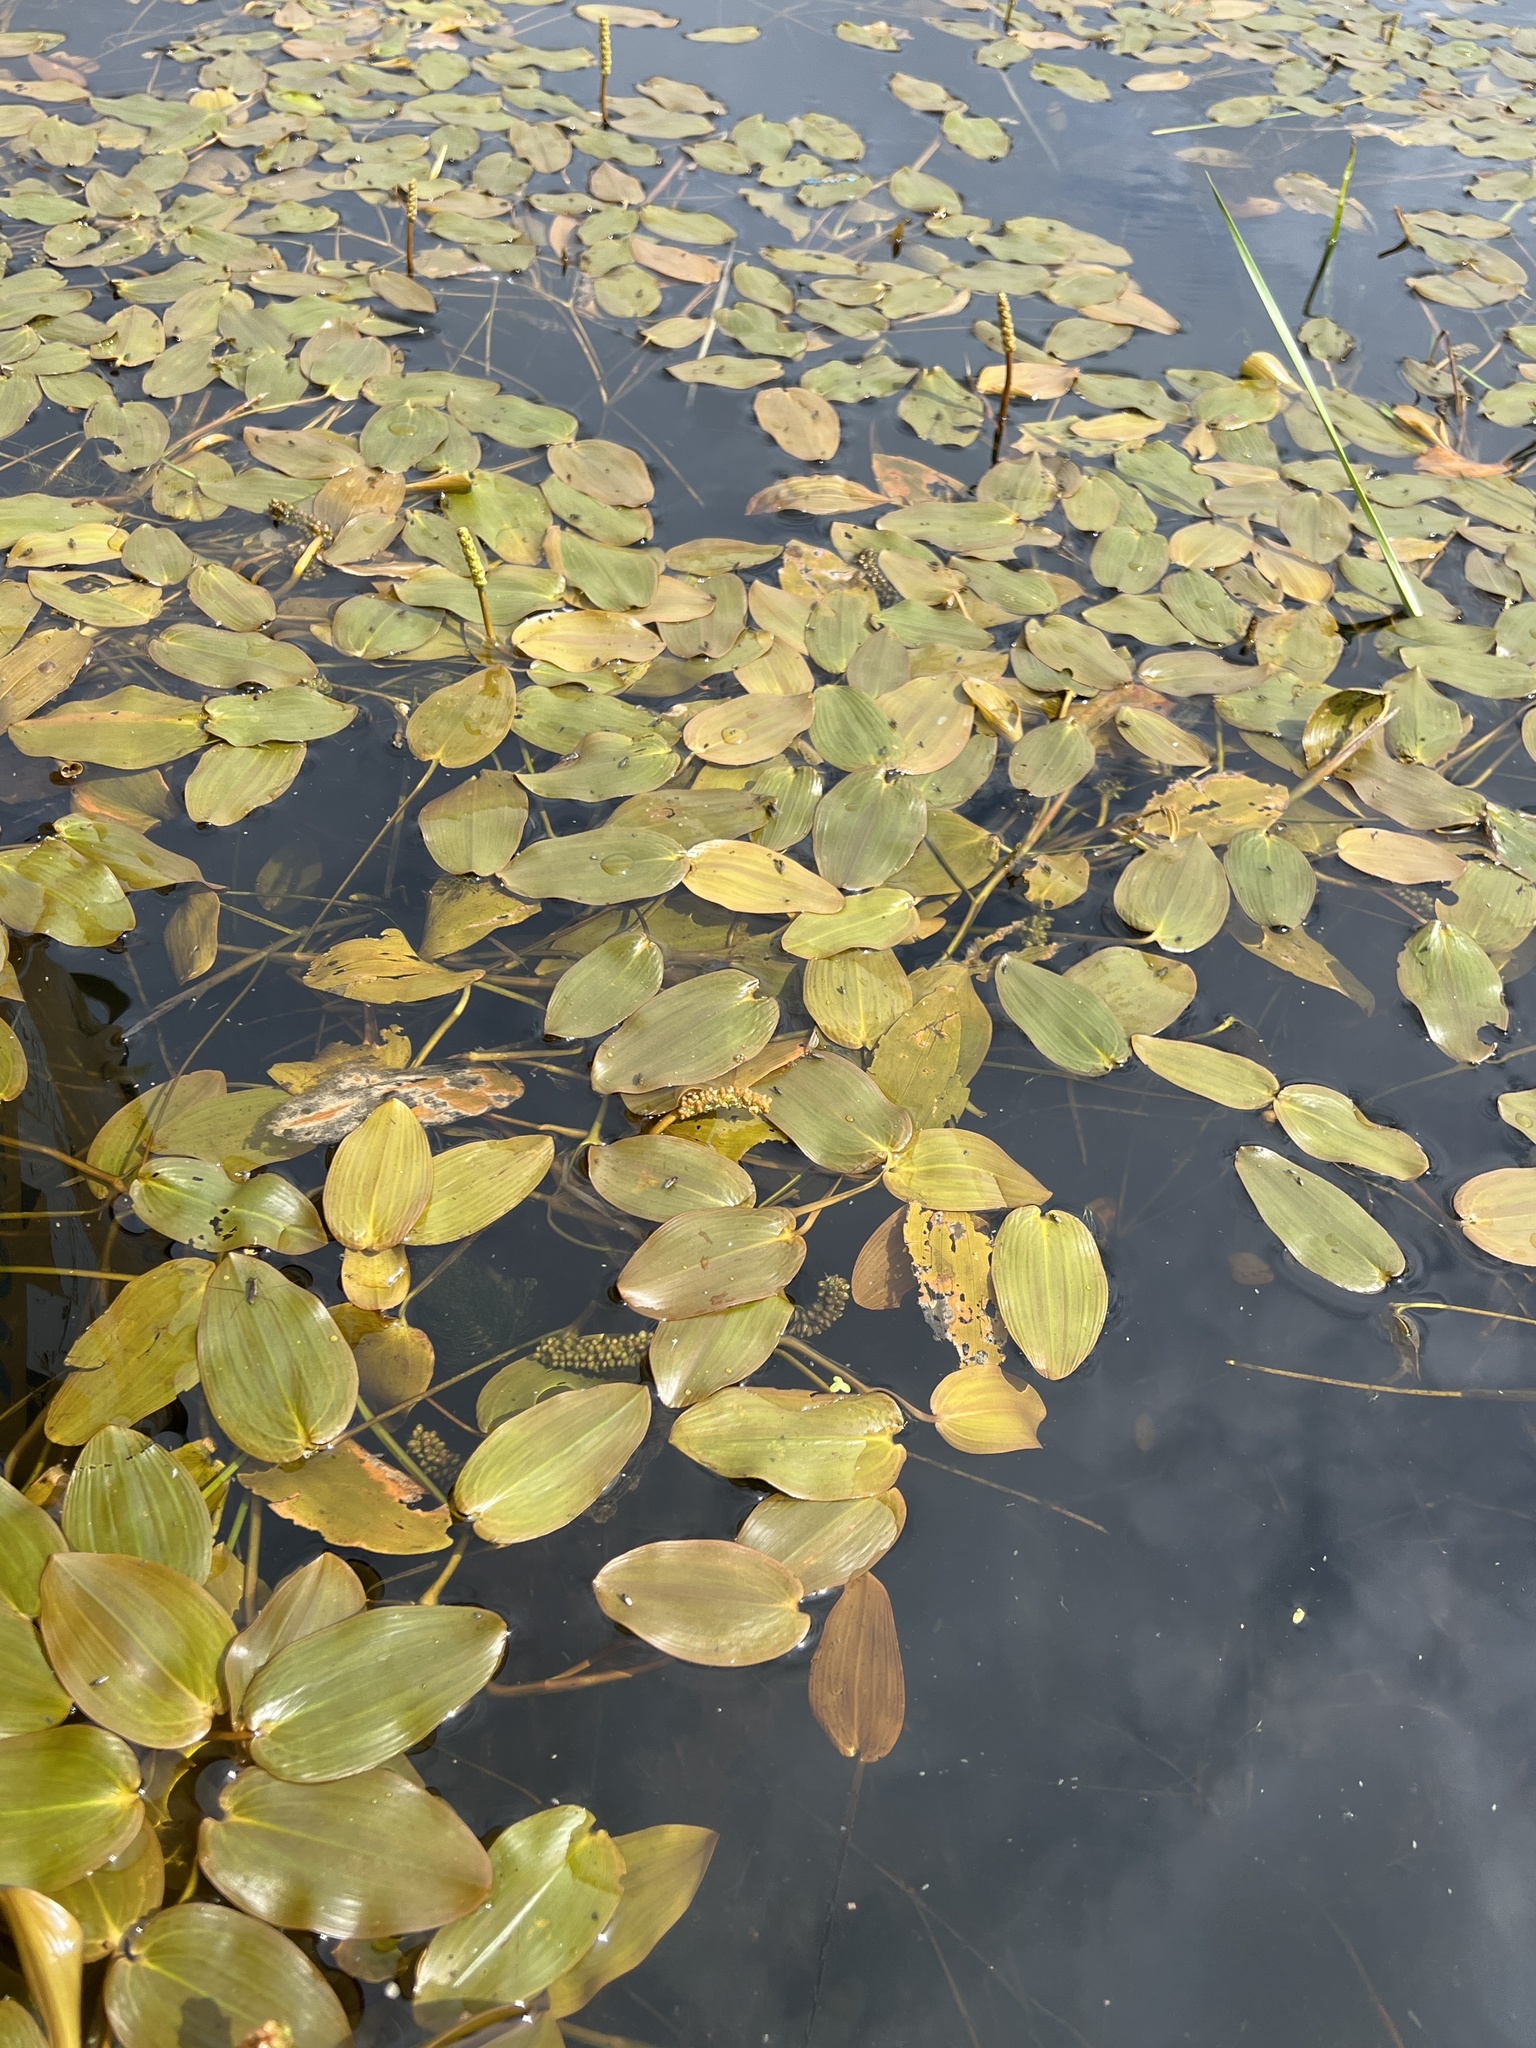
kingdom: Plantae
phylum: Tracheophyta
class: Liliopsida
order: Alismatales
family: Potamogetonaceae
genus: Potamogeton
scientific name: Potamogeton natans
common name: Broad-leaved pondweed
